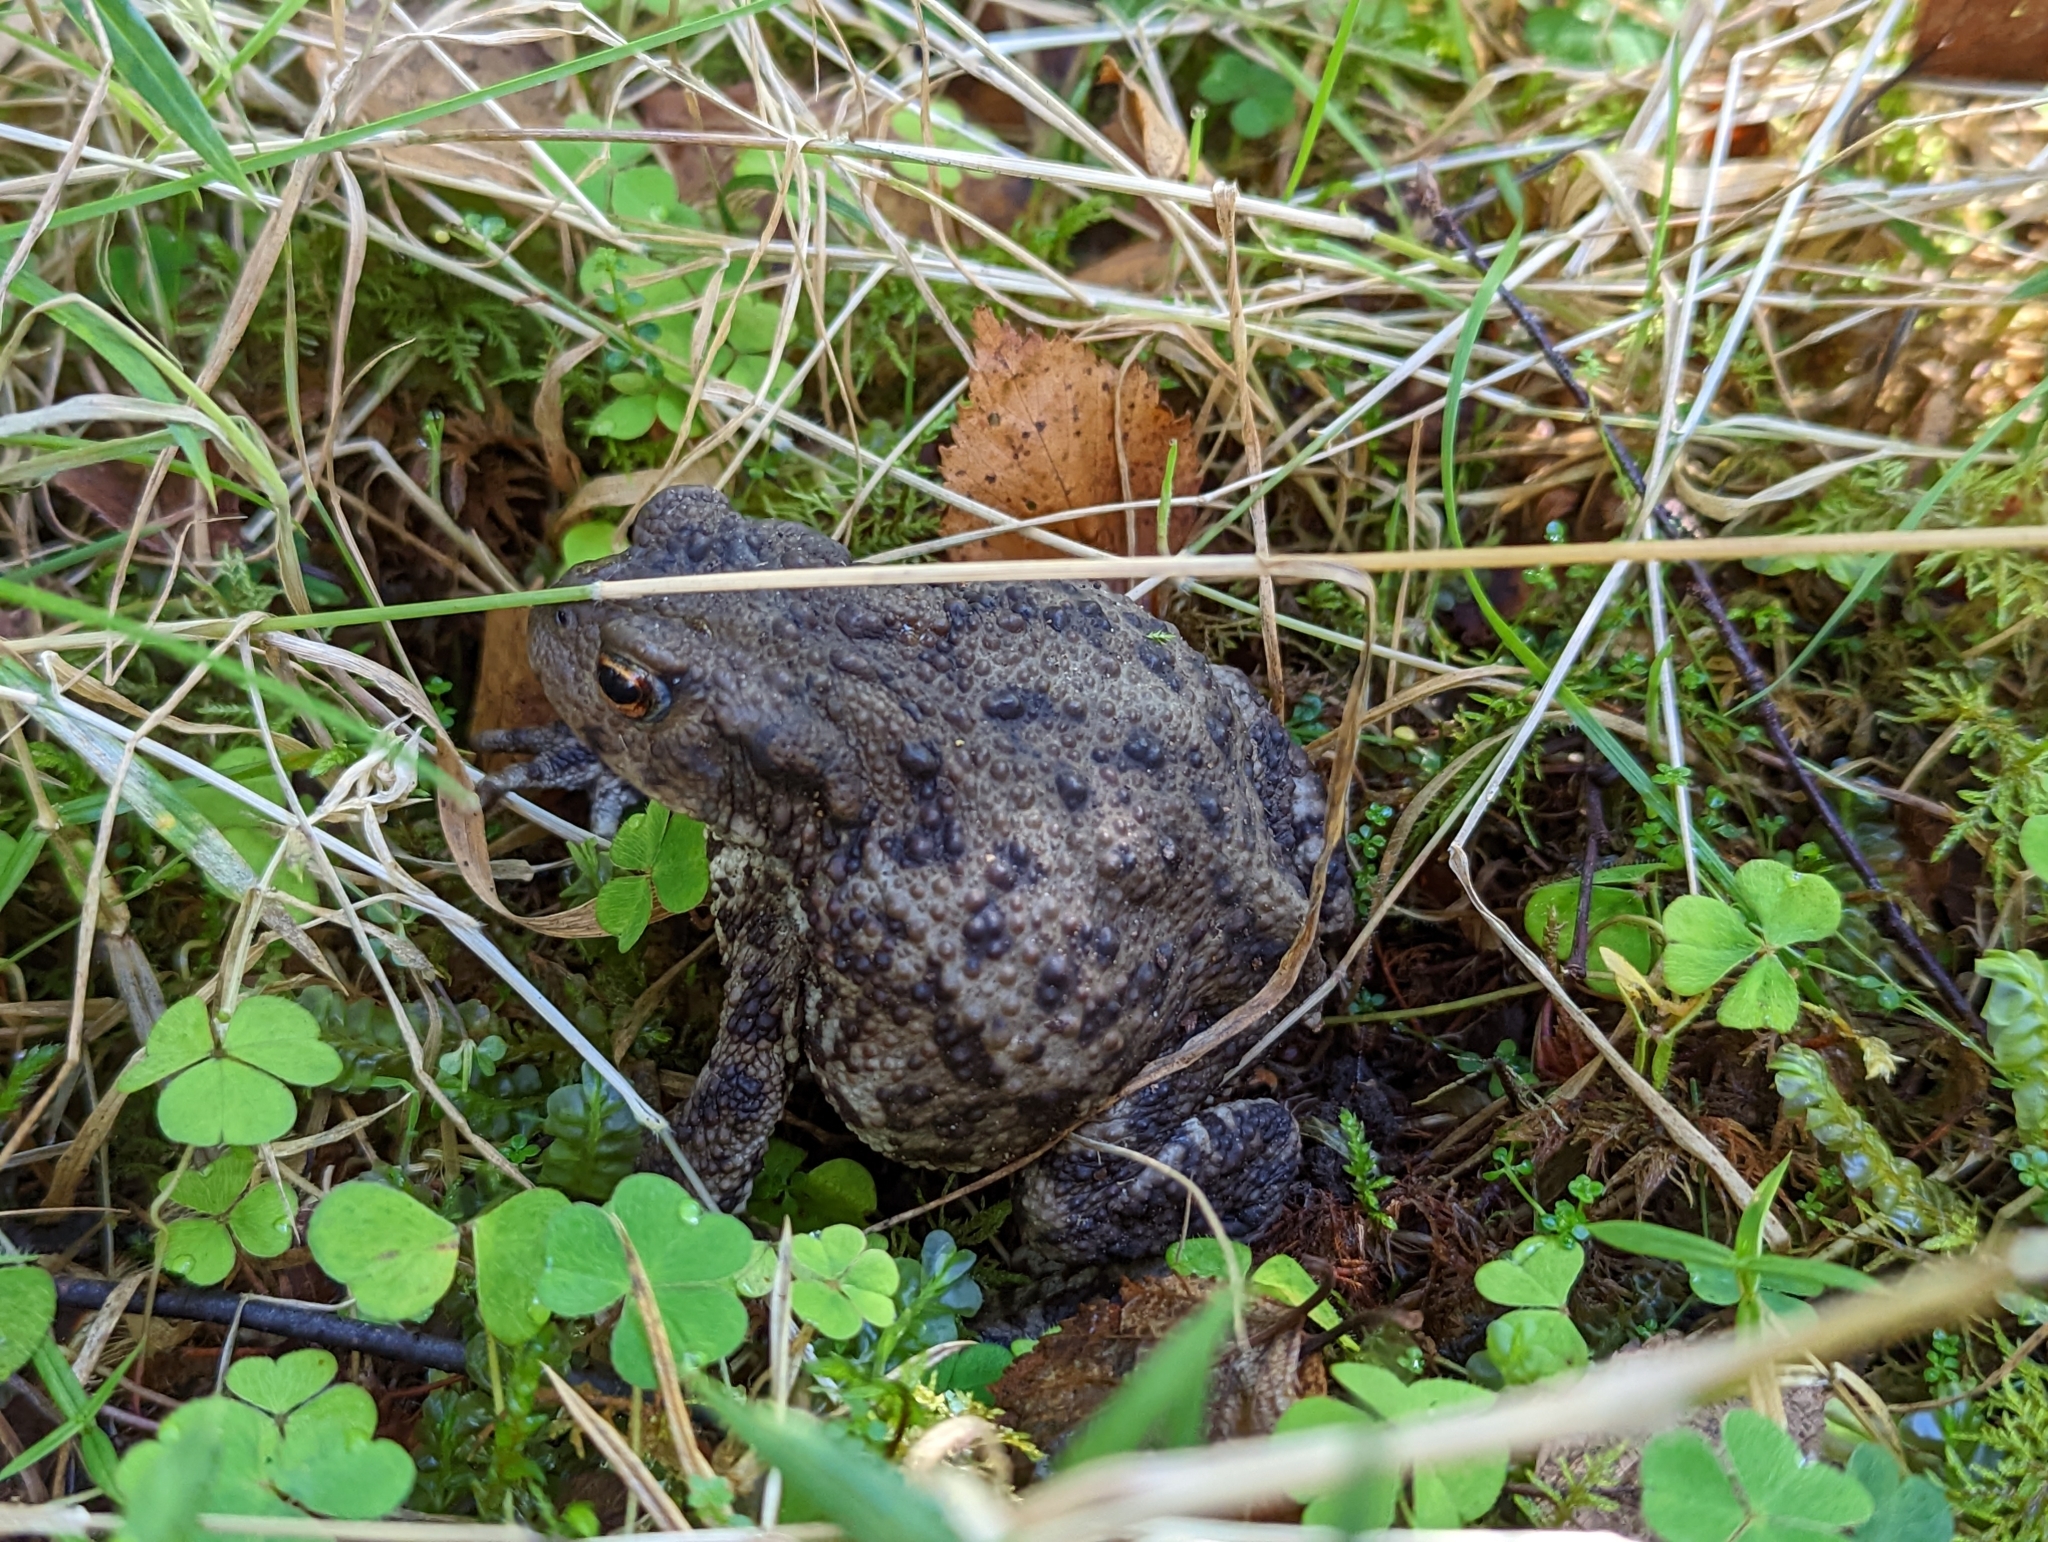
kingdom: Animalia
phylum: Chordata
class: Amphibia
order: Anura
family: Bufonidae
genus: Bufo
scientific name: Bufo bufo
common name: Common toad
